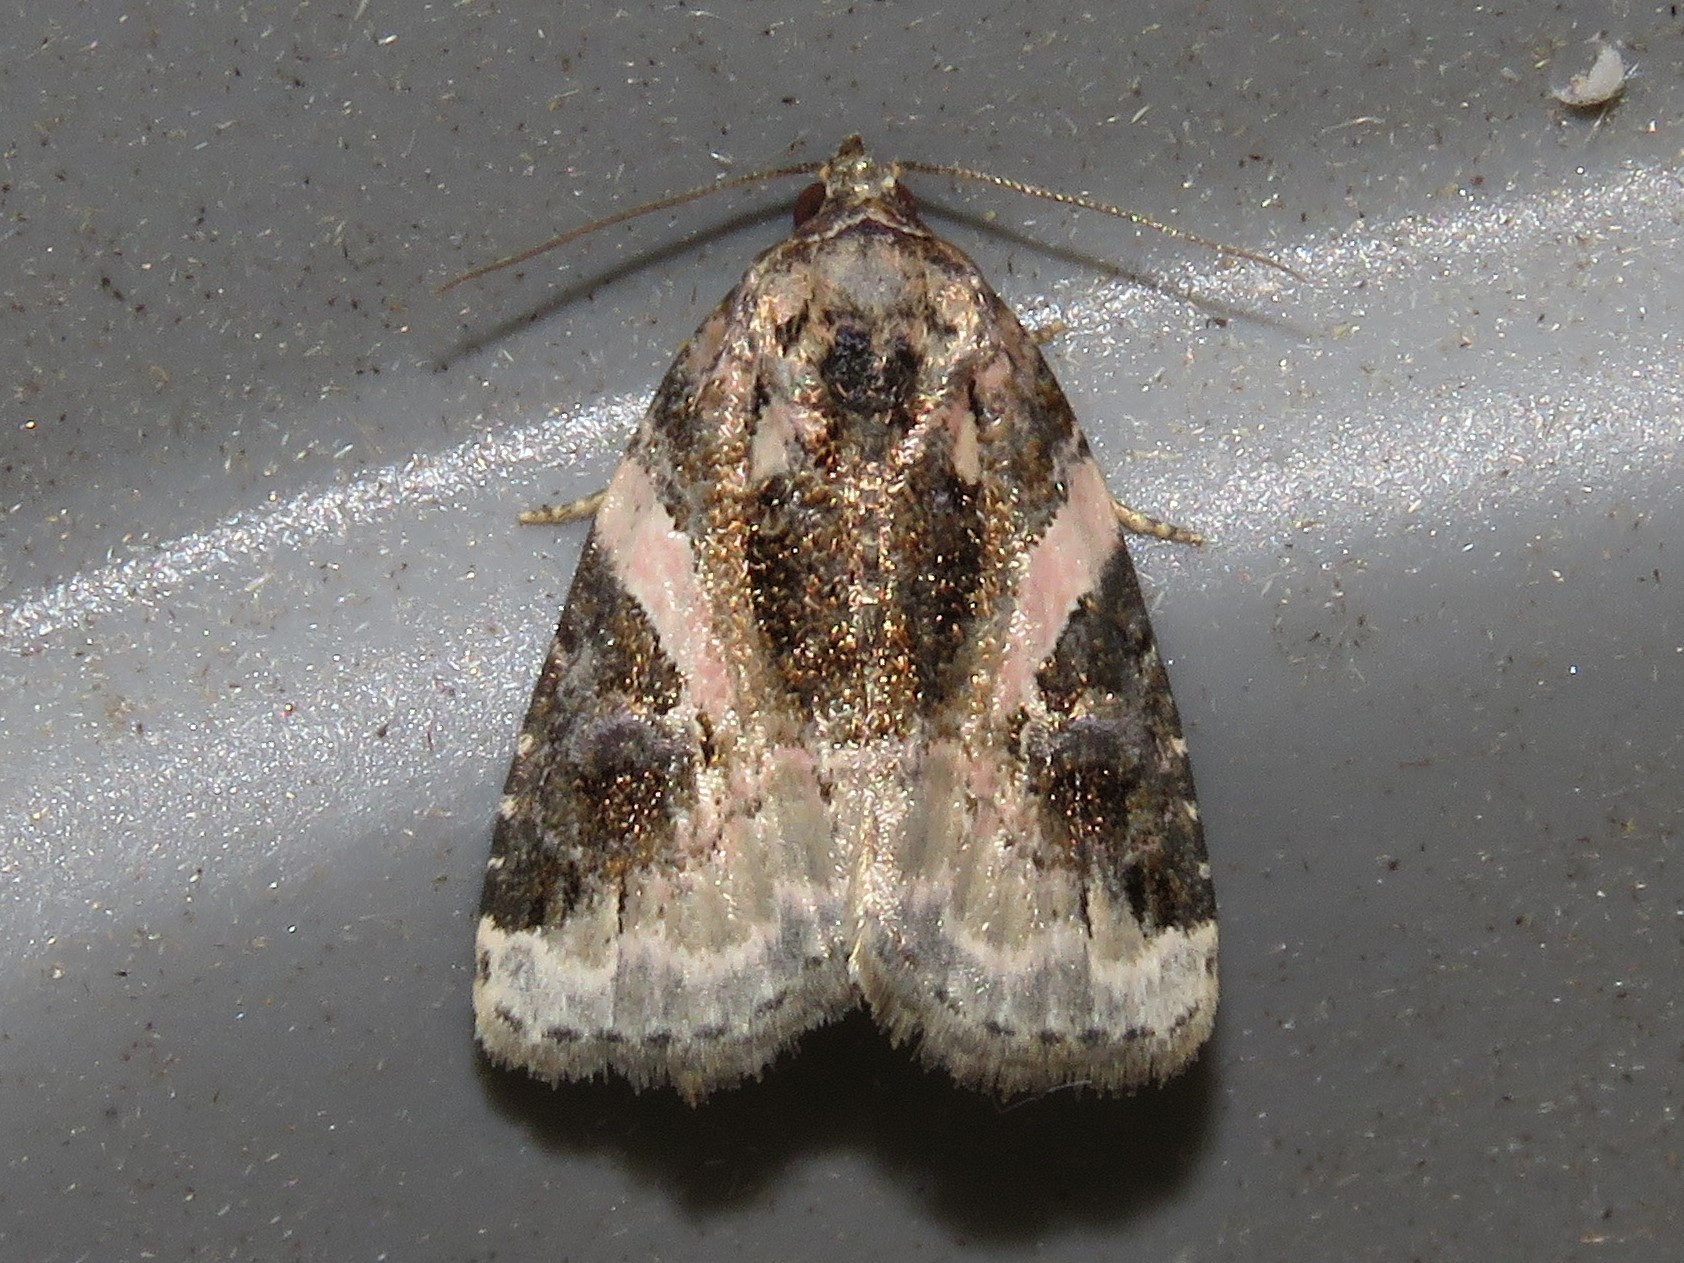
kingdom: Animalia
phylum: Arthropoda
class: Insecta
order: Lepidoptera
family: Noctuidae
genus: Pseudeustrotia
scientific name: Pseudeustrotia carneola
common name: Pink-barred lithacodia moth
